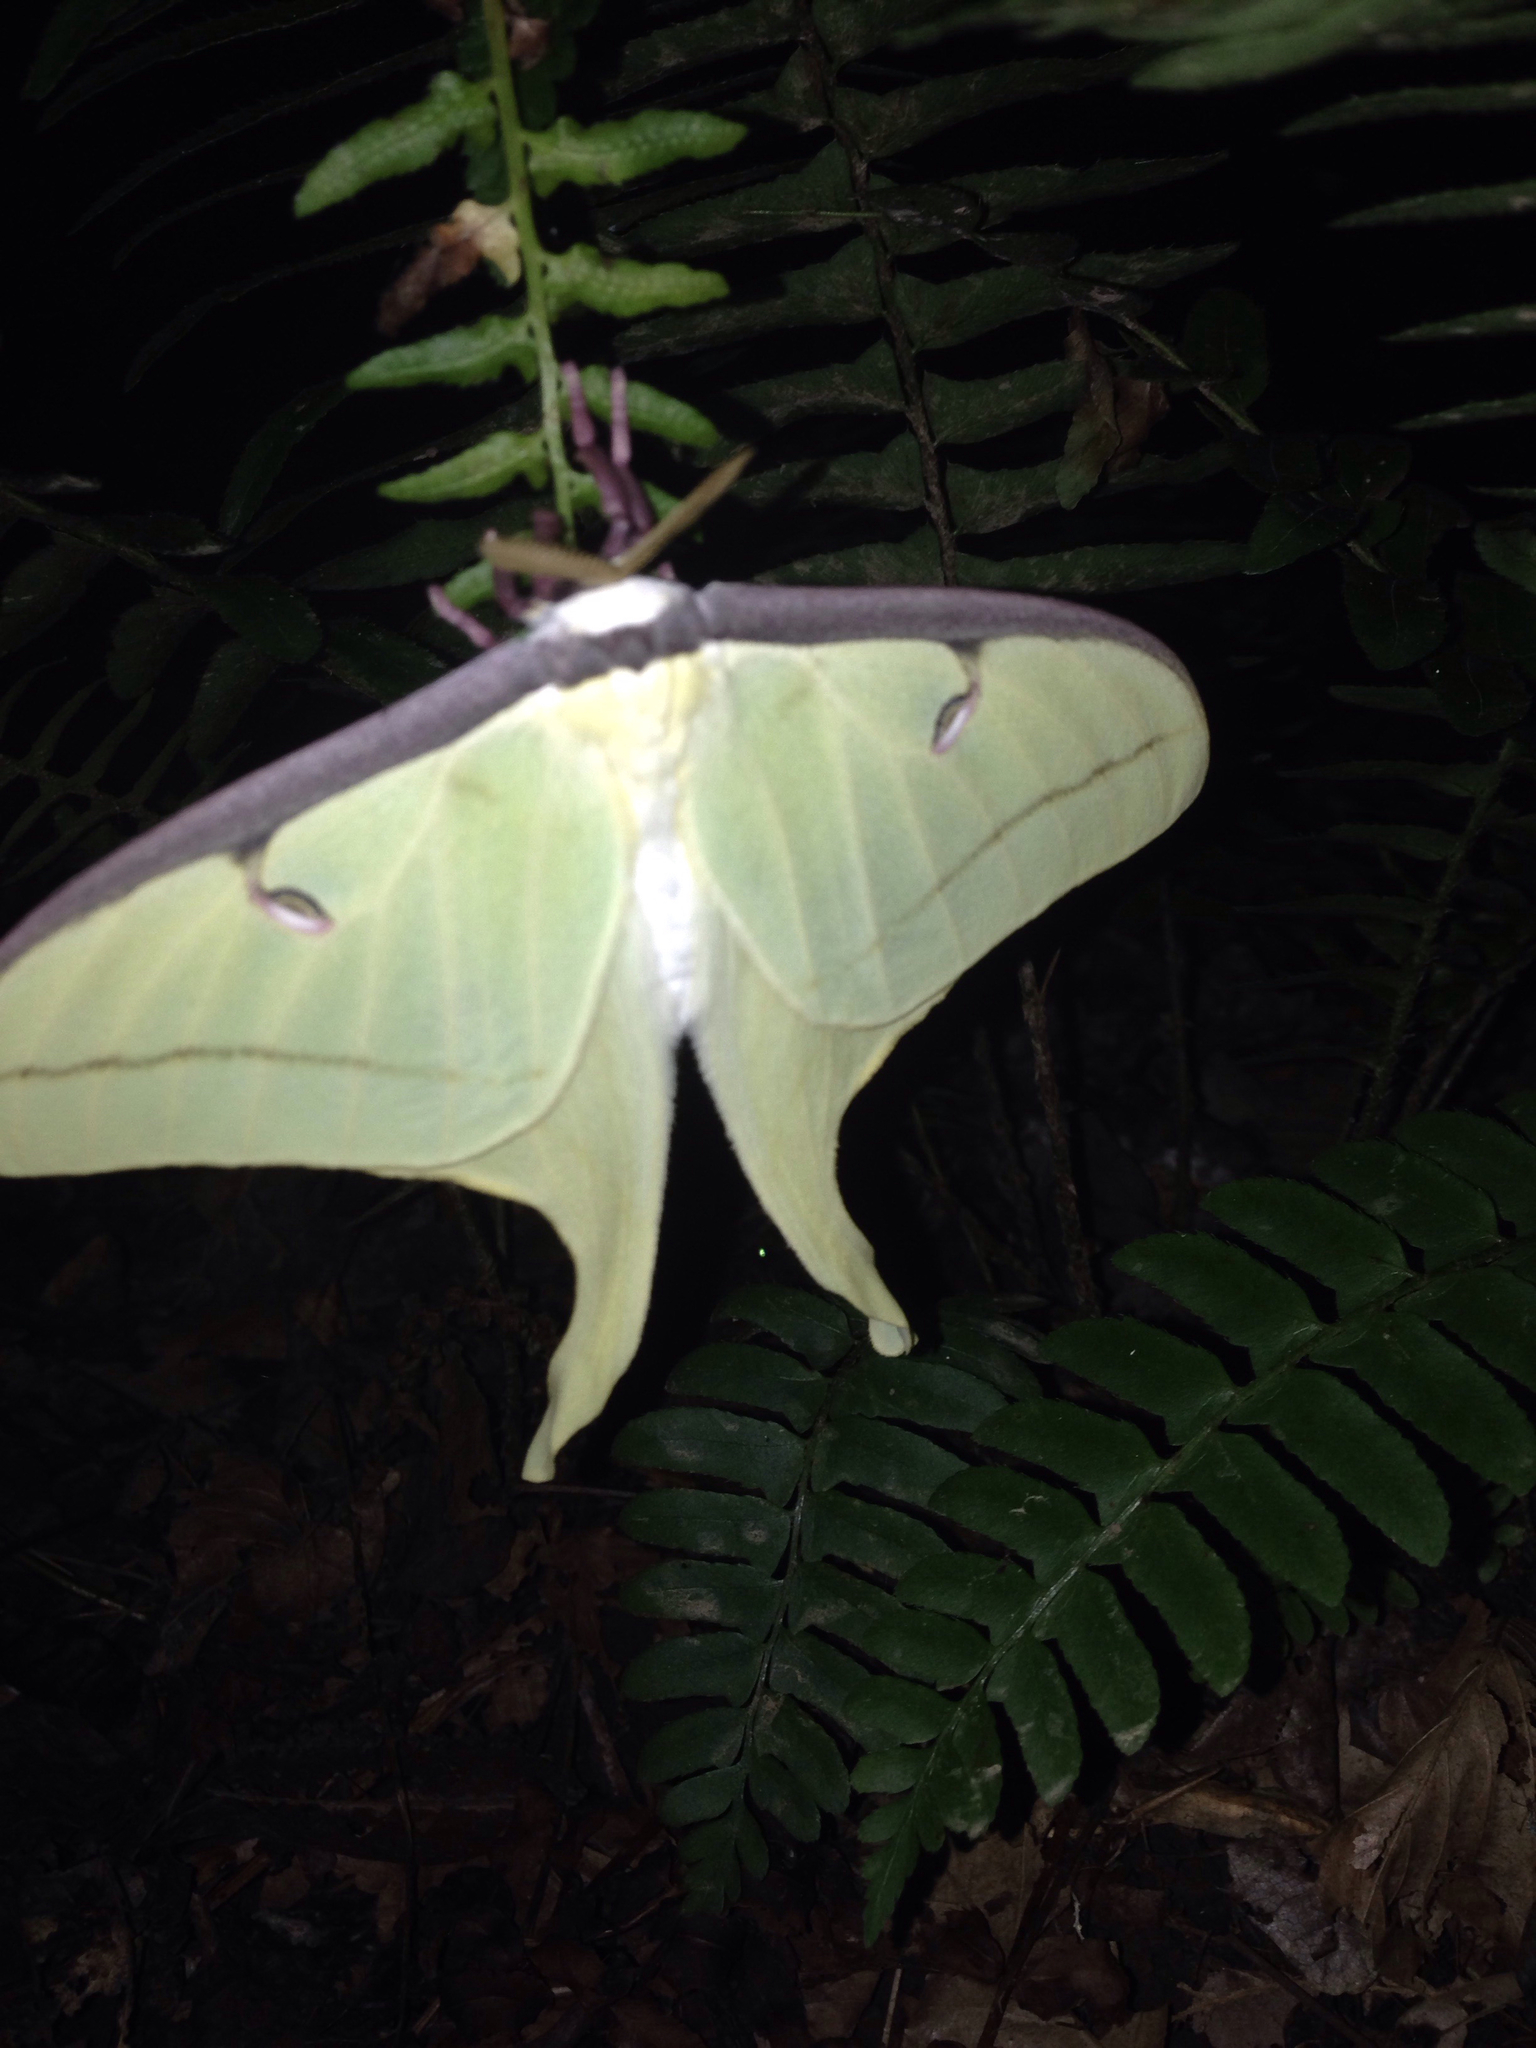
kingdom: Animalia
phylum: Arthropoda
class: Insecta
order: Lepidoptera
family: Saturniidae
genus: Actias
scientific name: Actias luna
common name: Luna moth
